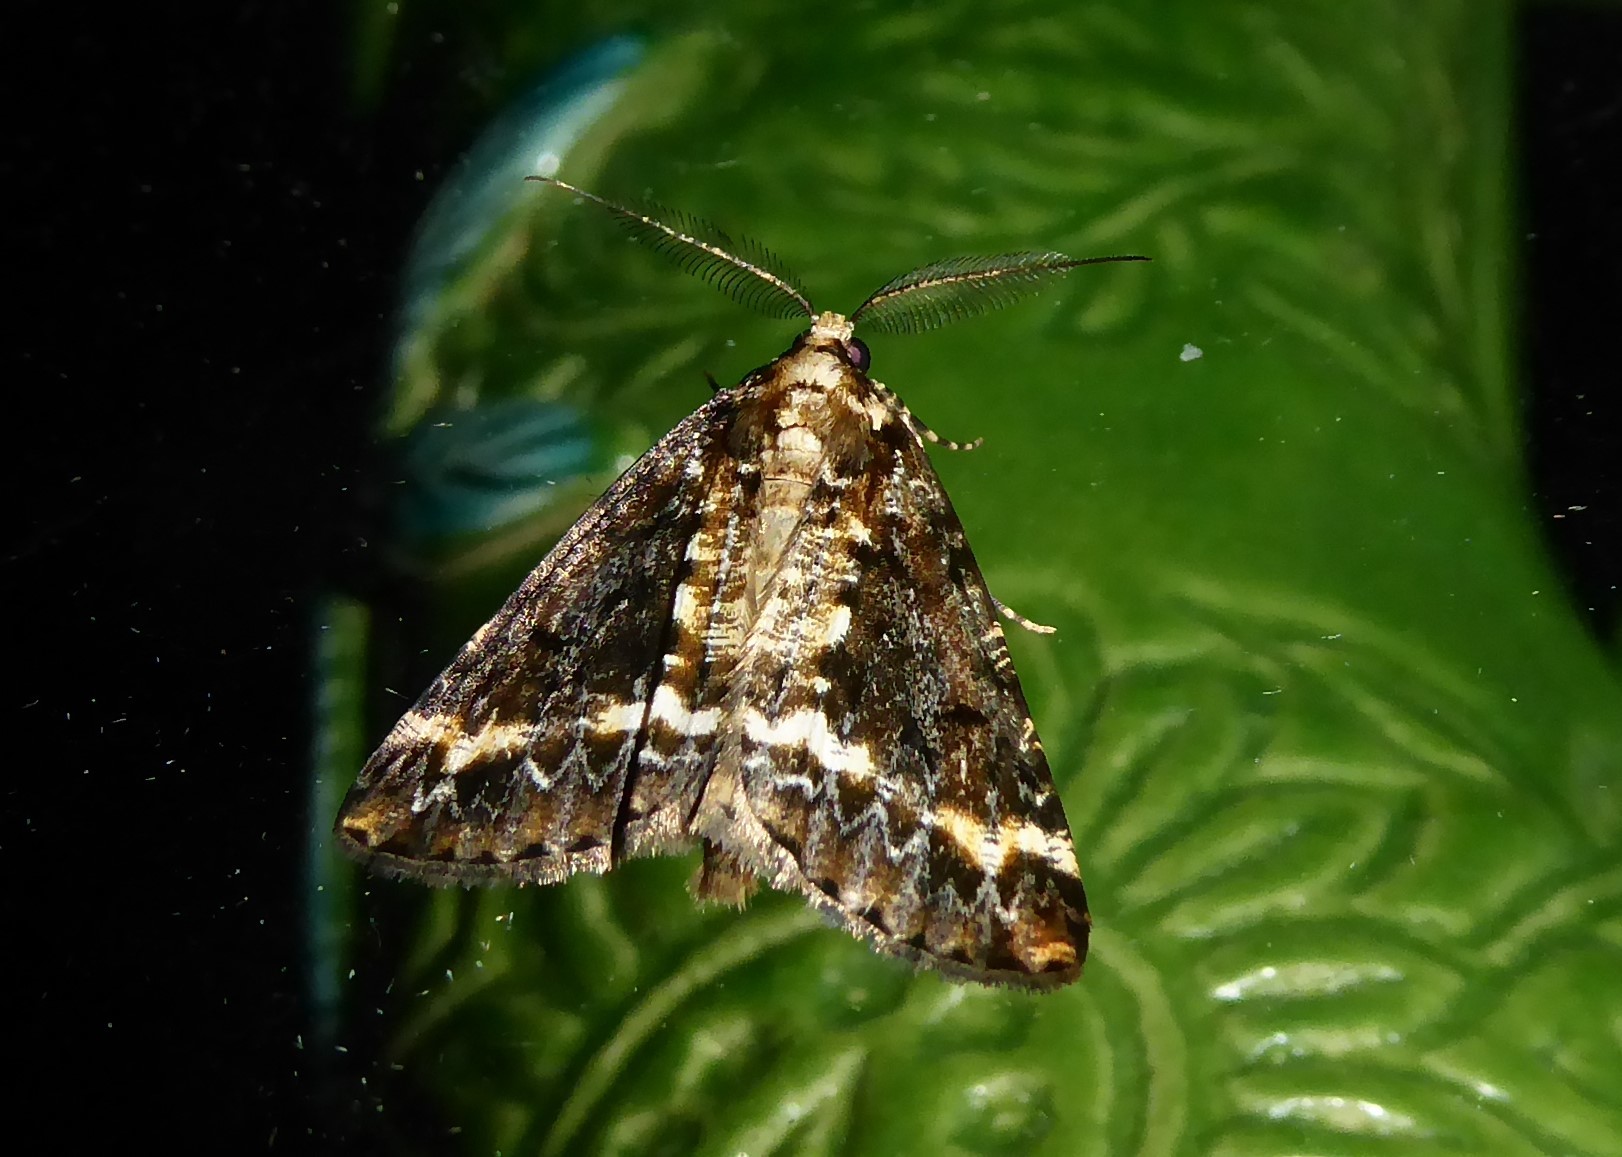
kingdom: Animalia
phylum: Arthropoda
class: Insecta
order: Lepidoptera
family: Geometridae
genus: Pseudocoremia
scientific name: Pseudocoremia leucelaea
